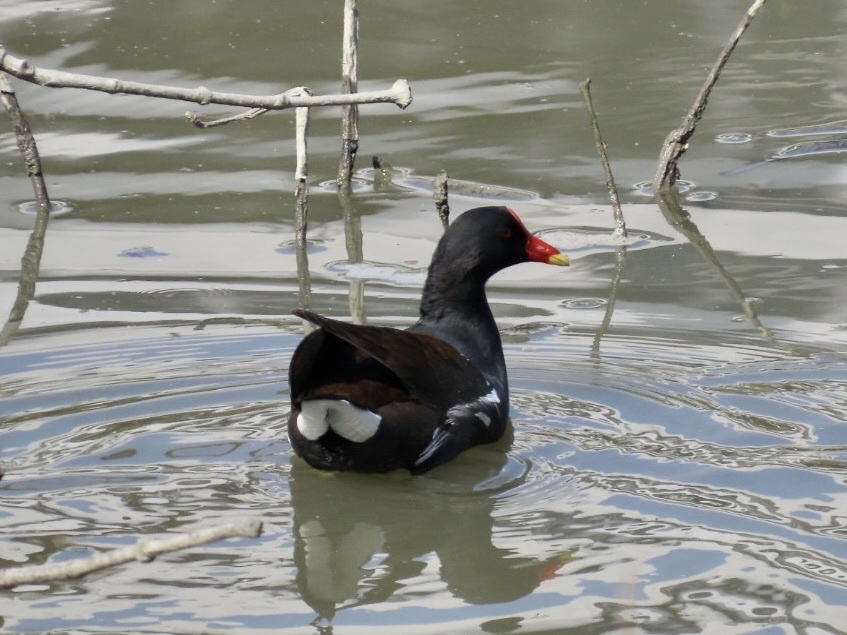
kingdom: Animalia
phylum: Chordata
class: Aves
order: Gruiformes
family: Rallidae
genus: Gallinula
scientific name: Gallinula chloropus
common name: Common moorhen
